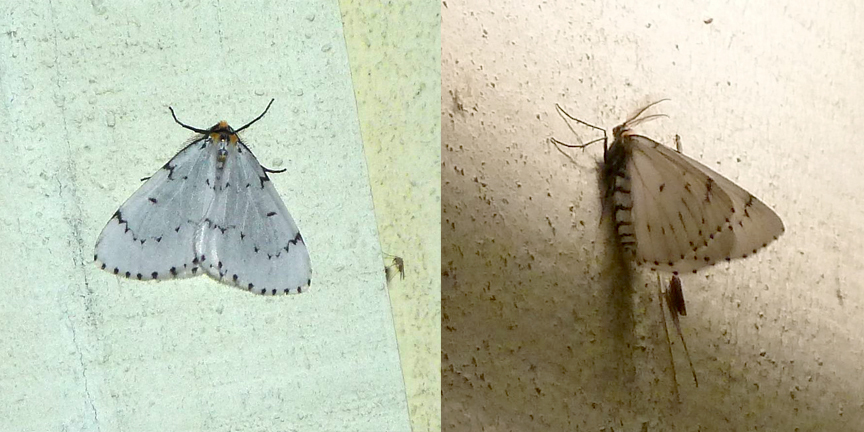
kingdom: Animalia
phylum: Arthropoda
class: Insecta
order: Lepidoptera
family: Geometridae
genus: Cingilia
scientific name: Cingilia catenaria
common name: Chain-dotted geometer
